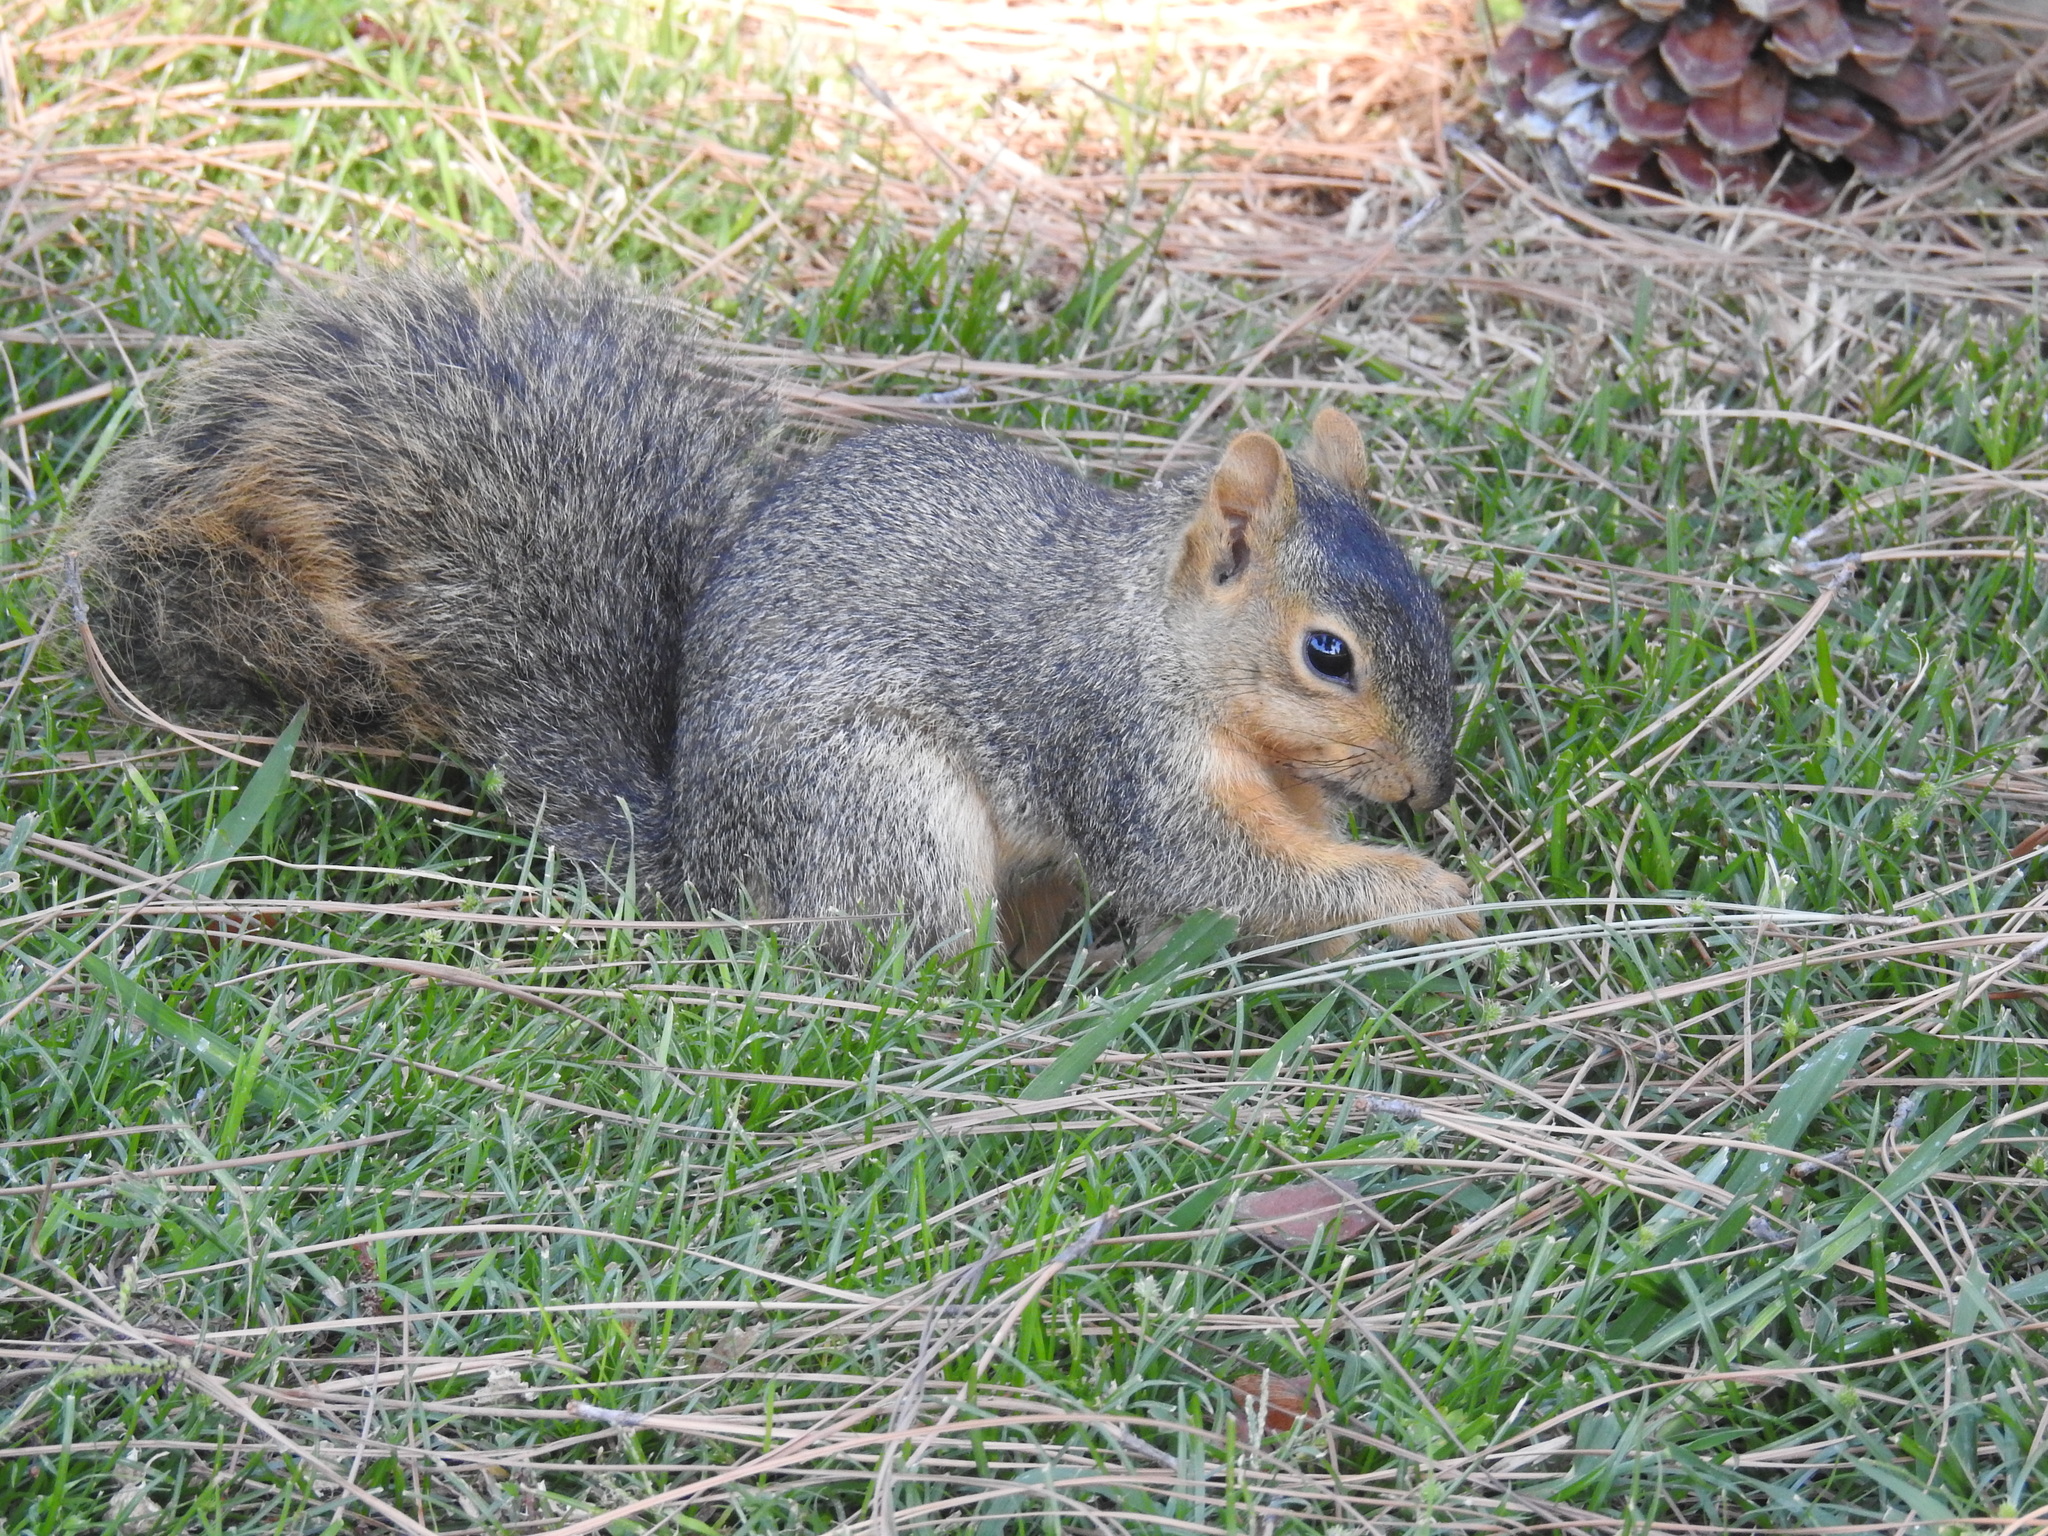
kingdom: Animalia
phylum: Chordata
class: Mammalia
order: Rodentia
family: Sciuridae
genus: Sciurus
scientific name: Sciurus niger
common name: Fox squirrel
